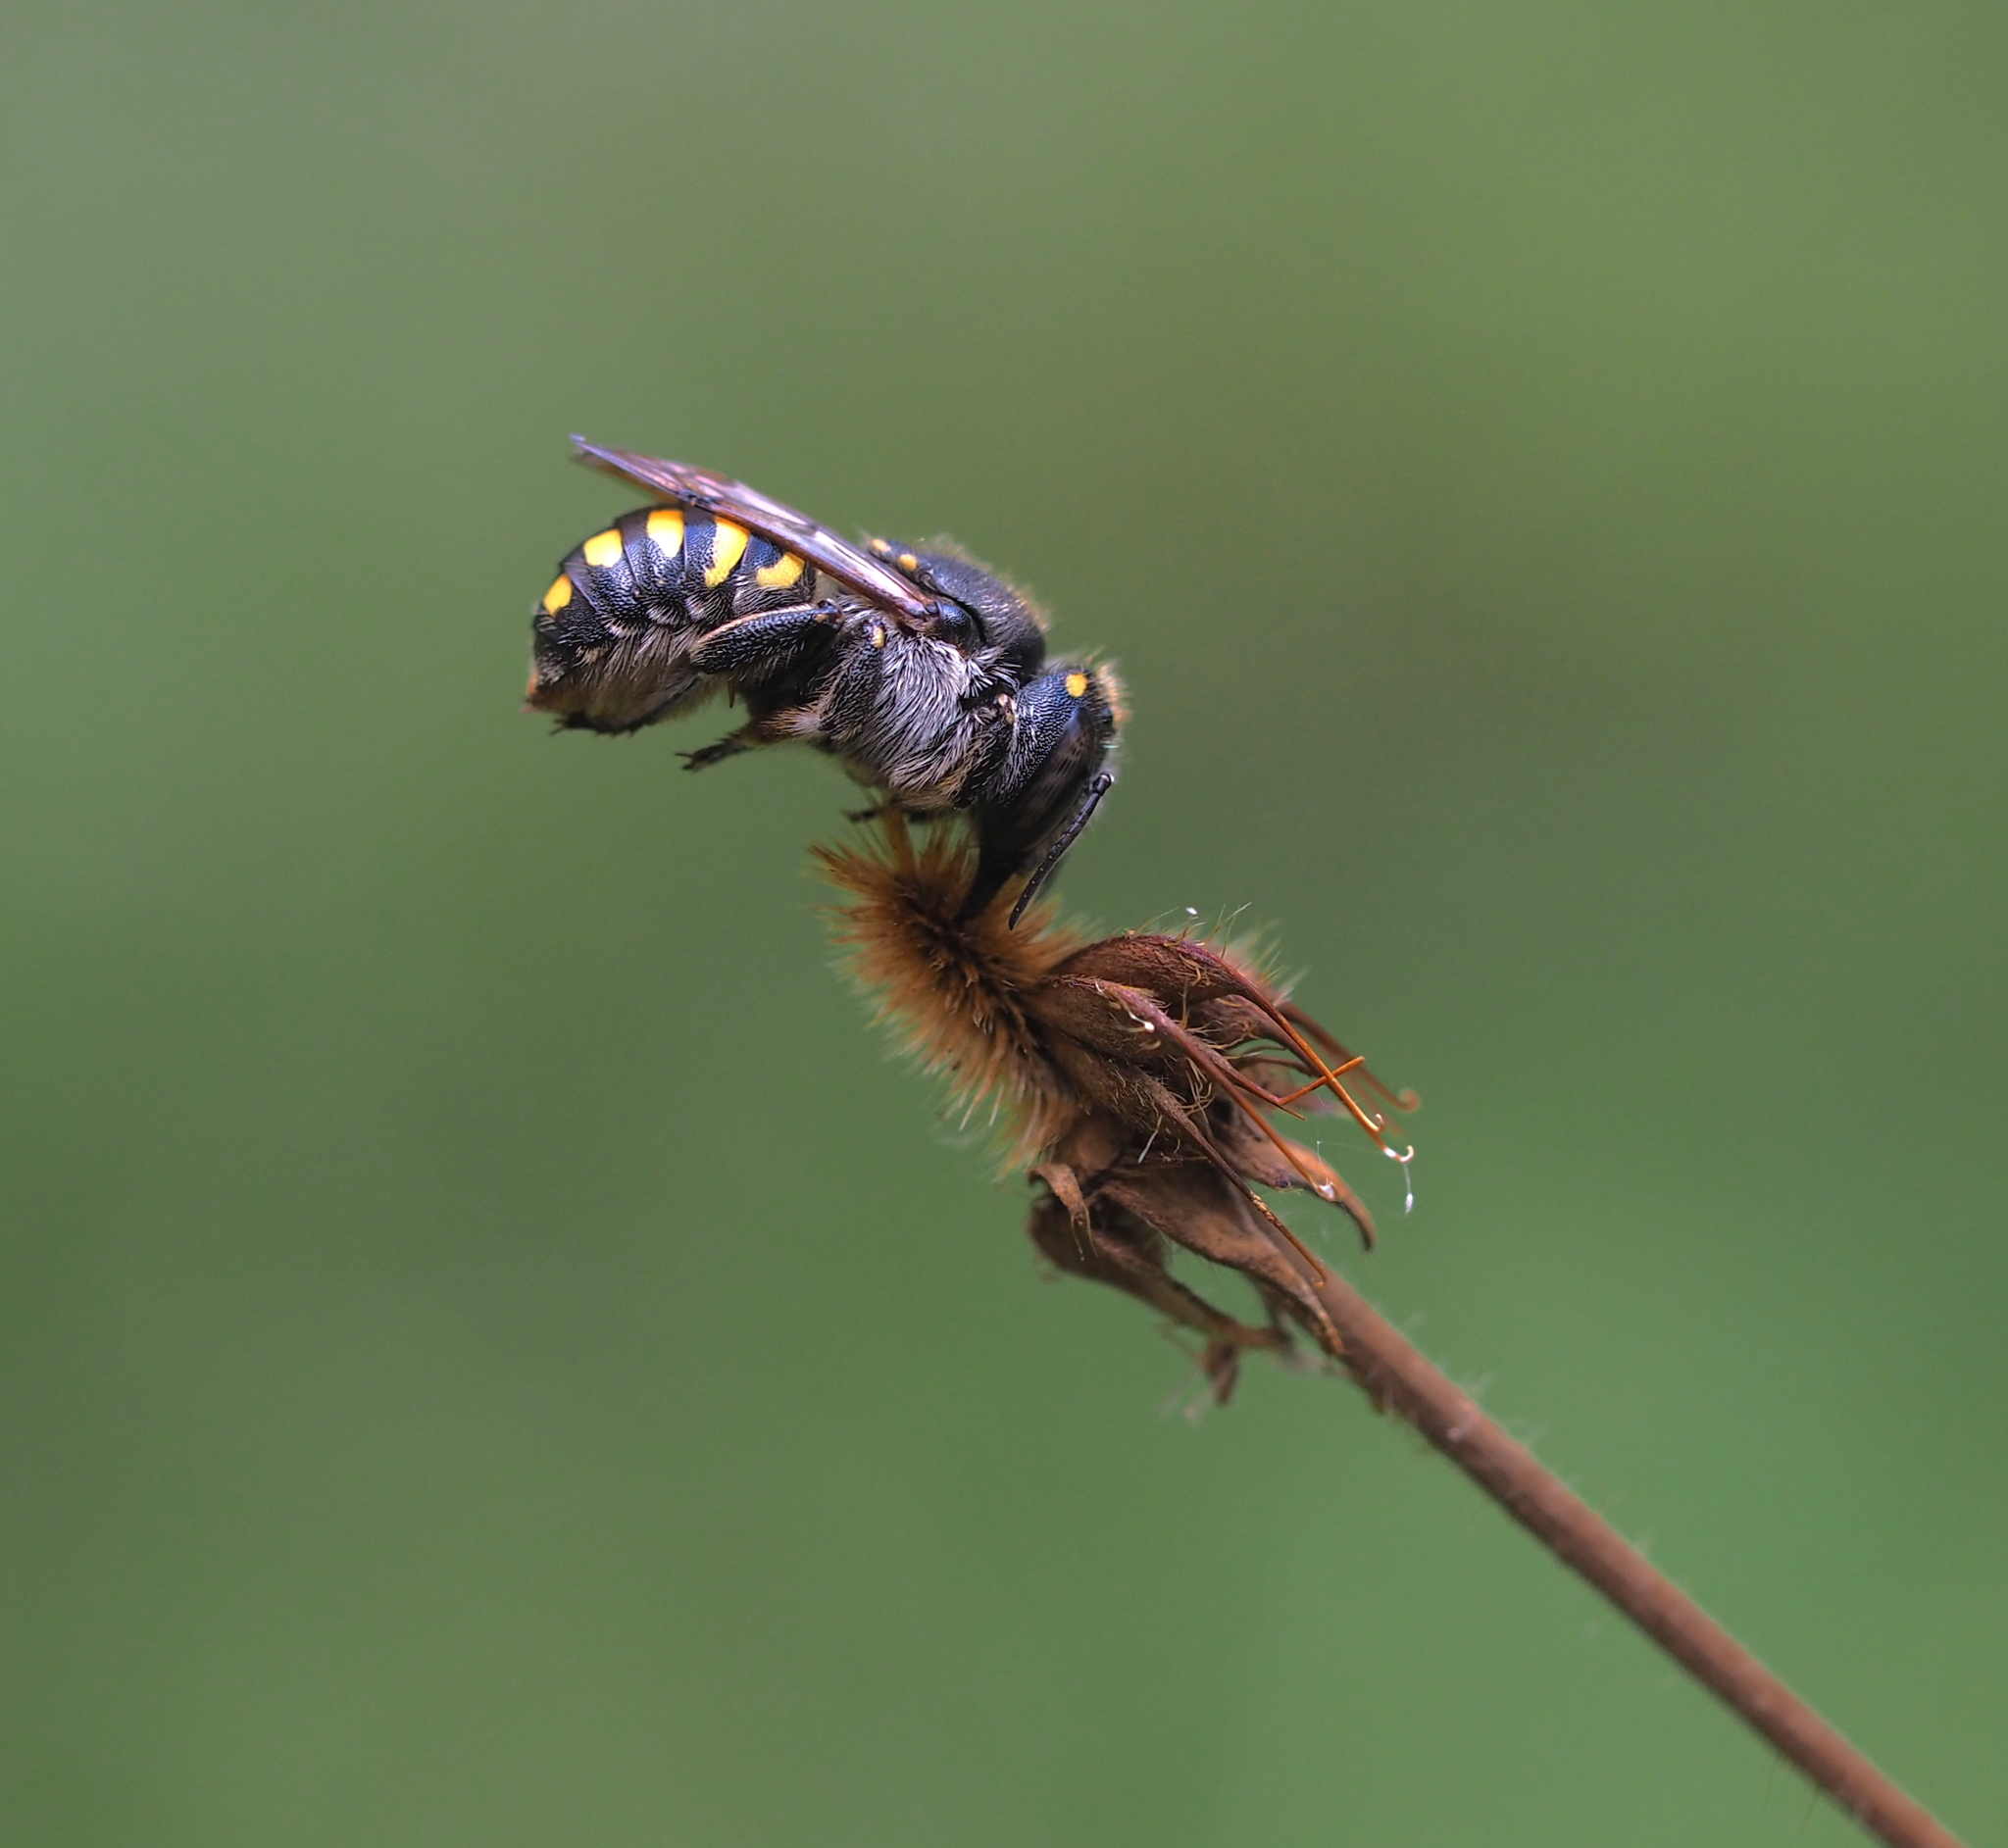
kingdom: Animalia
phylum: Arthropoda
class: Insecta
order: Hymenoptera
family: Megachilidae
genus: Anthidium
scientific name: Anthidium septemspinosum
